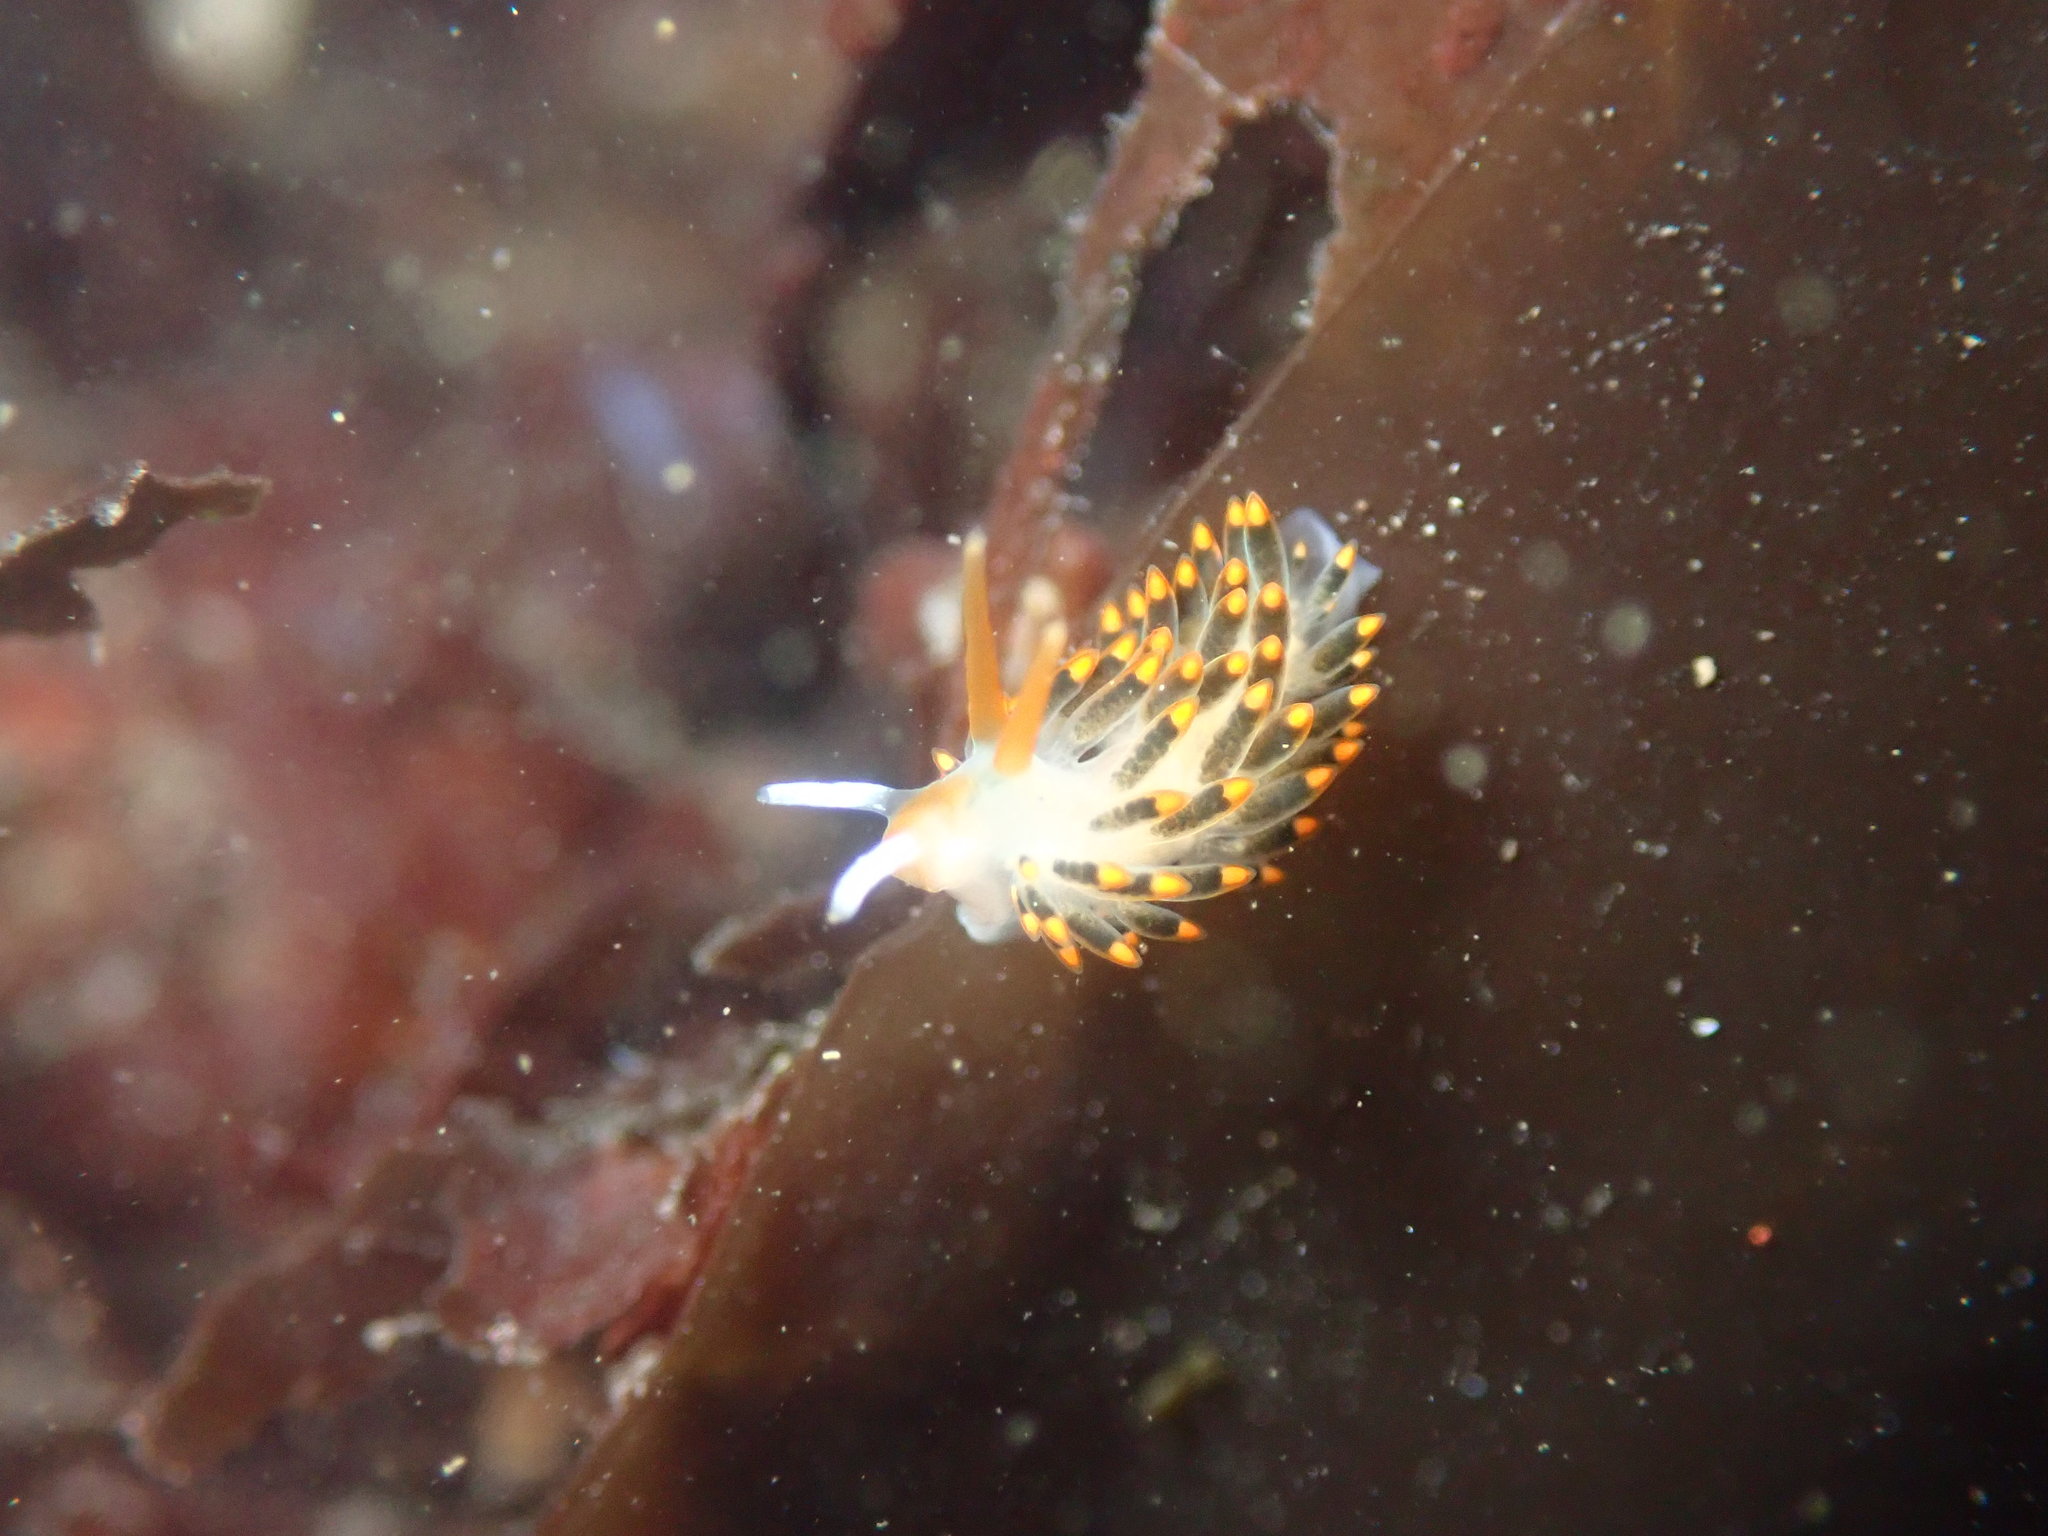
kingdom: Animalia
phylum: Mollusca
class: Gastropoda
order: Nudibranchia
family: Trinchesiidae
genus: Diaphoreolis
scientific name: Diaphoreolis lagunae
